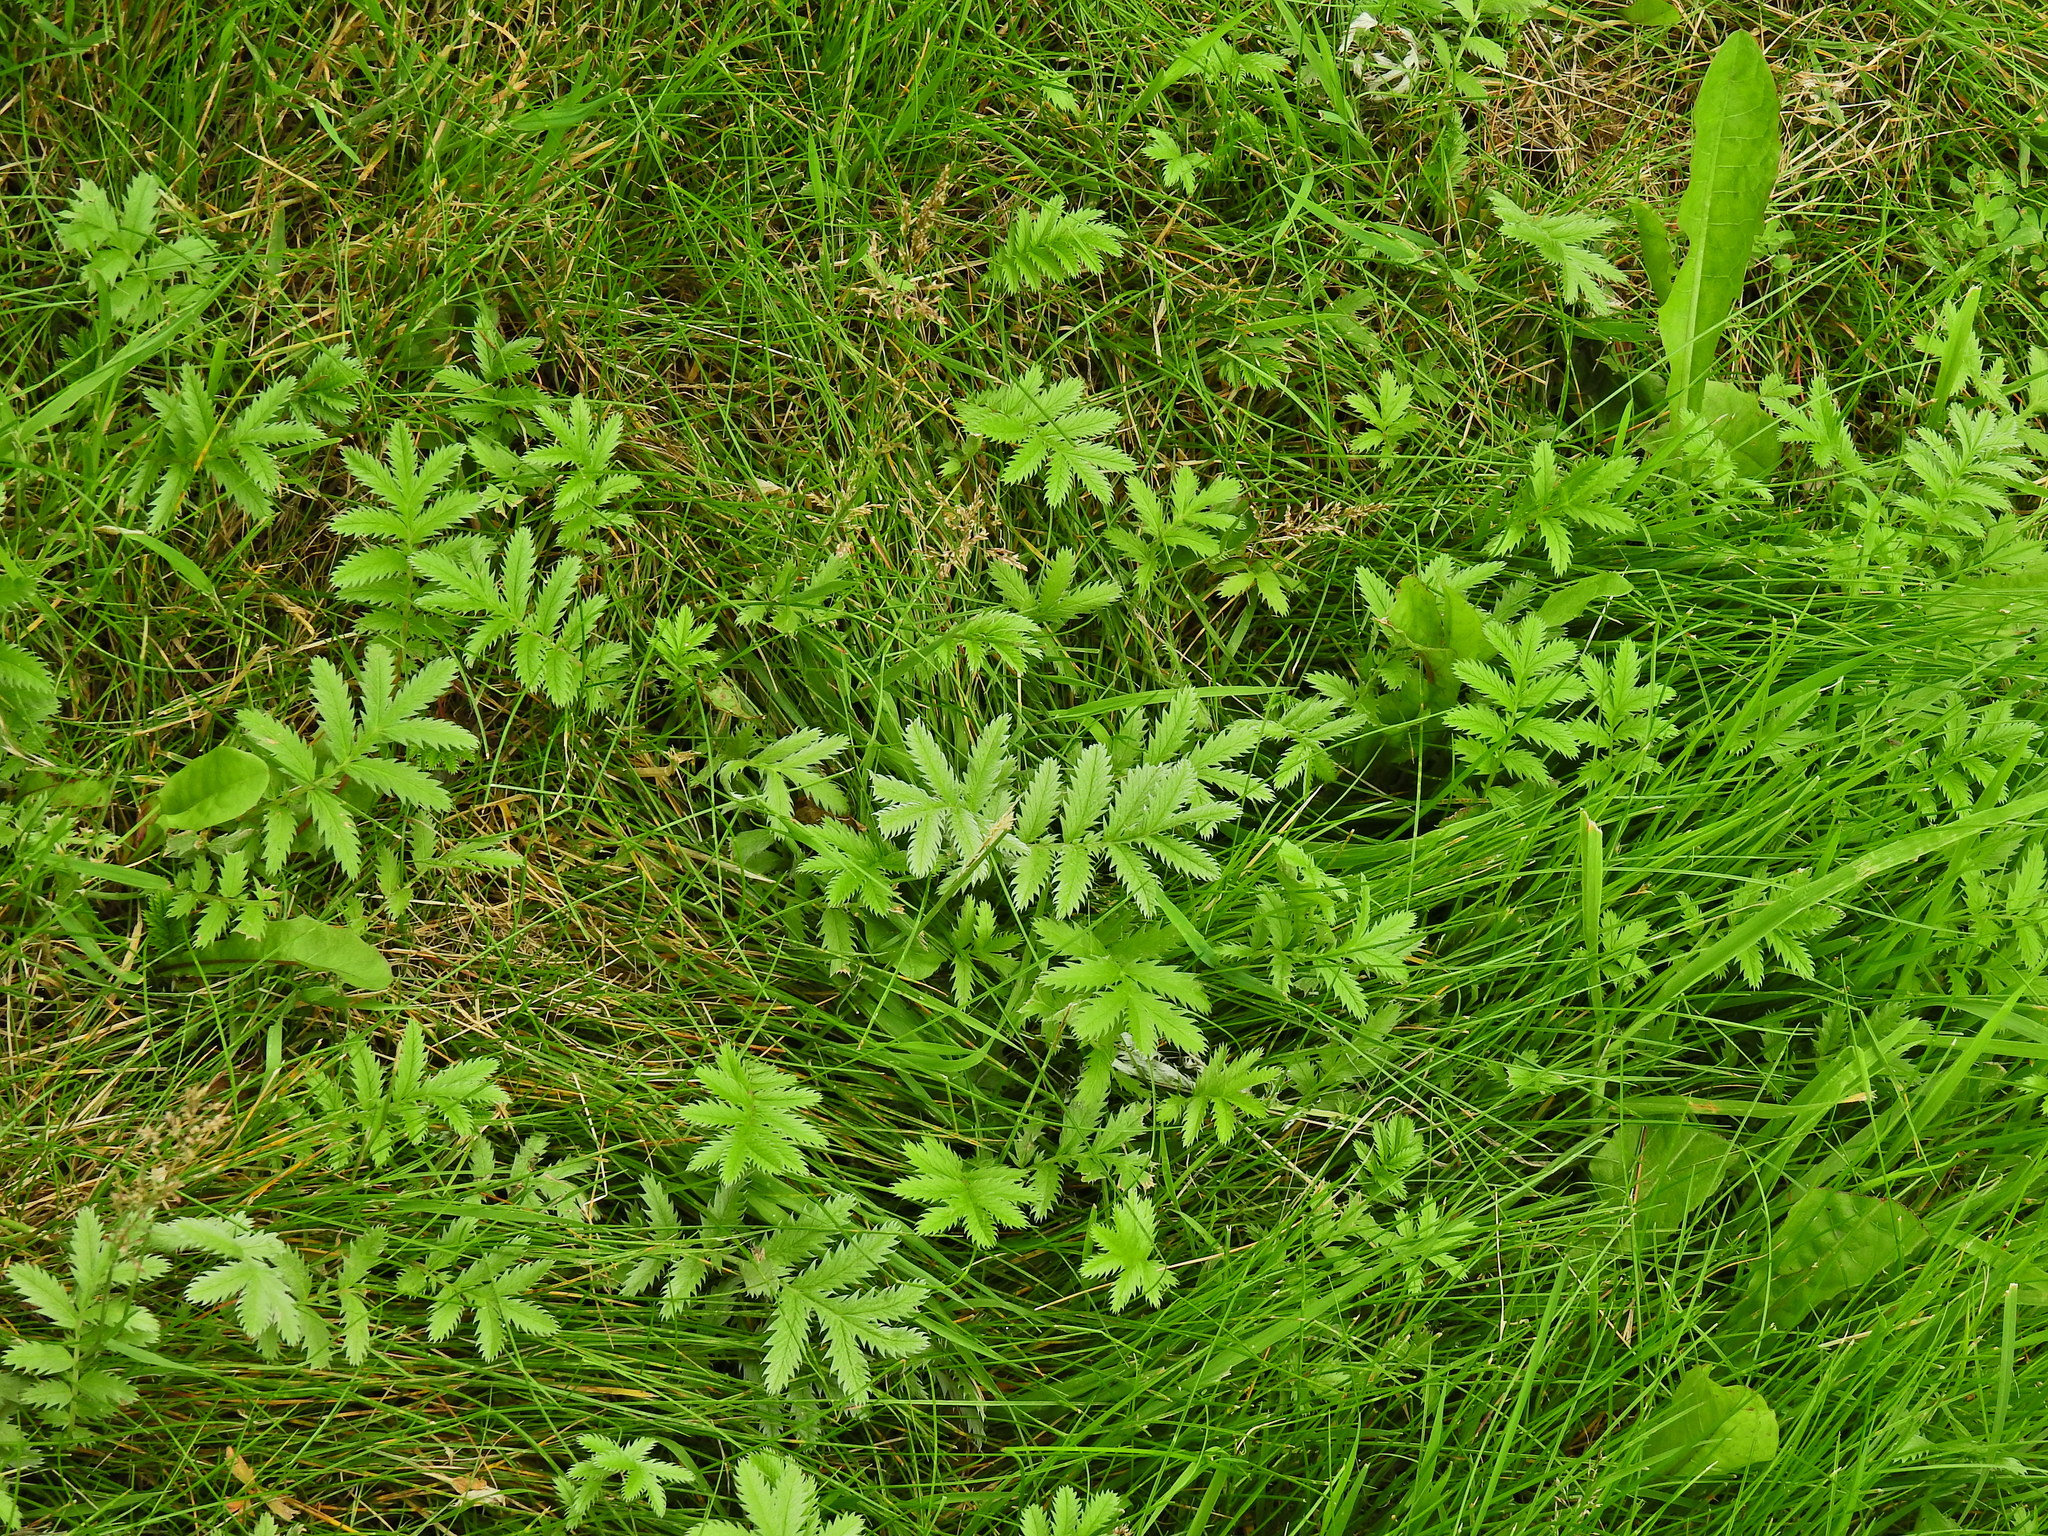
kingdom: Plantae
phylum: Tracheophyta
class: Magnoliopsida
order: Rosales
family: Rosaceae
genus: Argentina
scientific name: Argentina anserina
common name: Common silverweed
